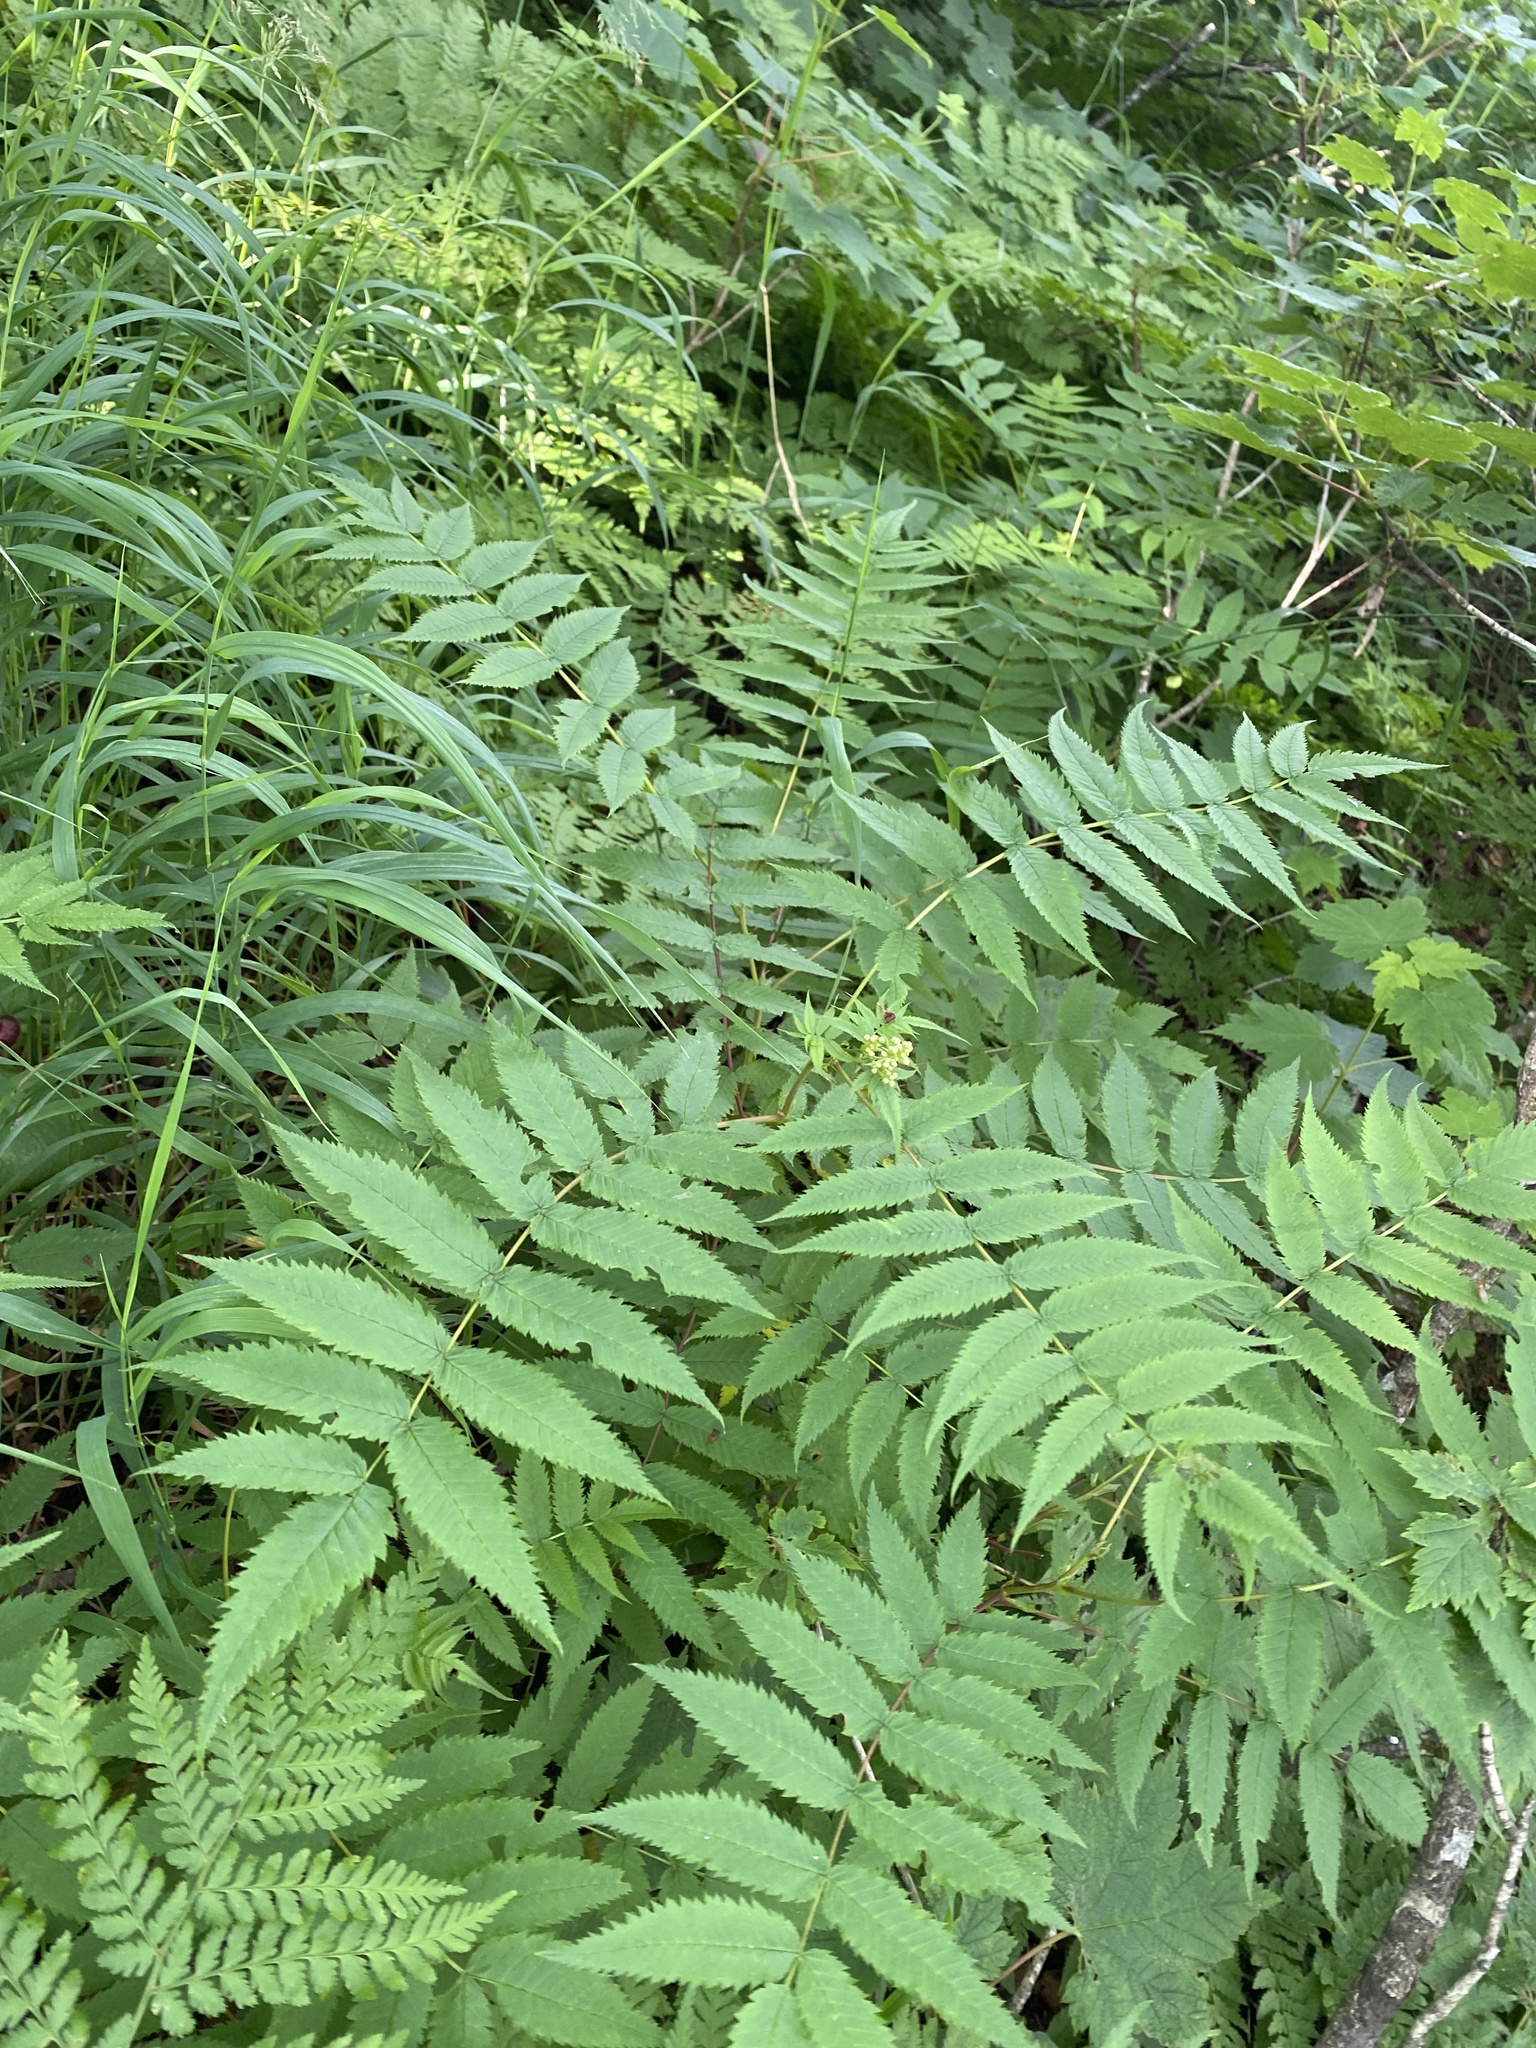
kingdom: Plantae
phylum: Tracheophyta
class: Magnoliopsida
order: Rosales
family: Rosaceae
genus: Sorbaria
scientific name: Sorbaria sorbifolia
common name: False spiraea
